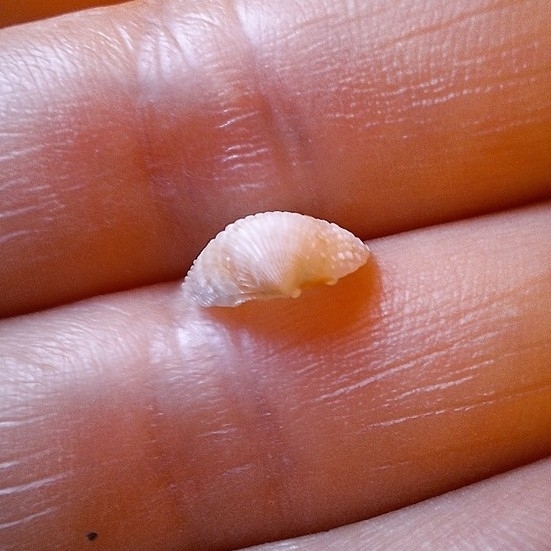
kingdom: Animalia
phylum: Mollusca
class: Bivalvia
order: Cardiida
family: Cardiidae
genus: Papillicardium
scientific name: Papillicardium papillosum
